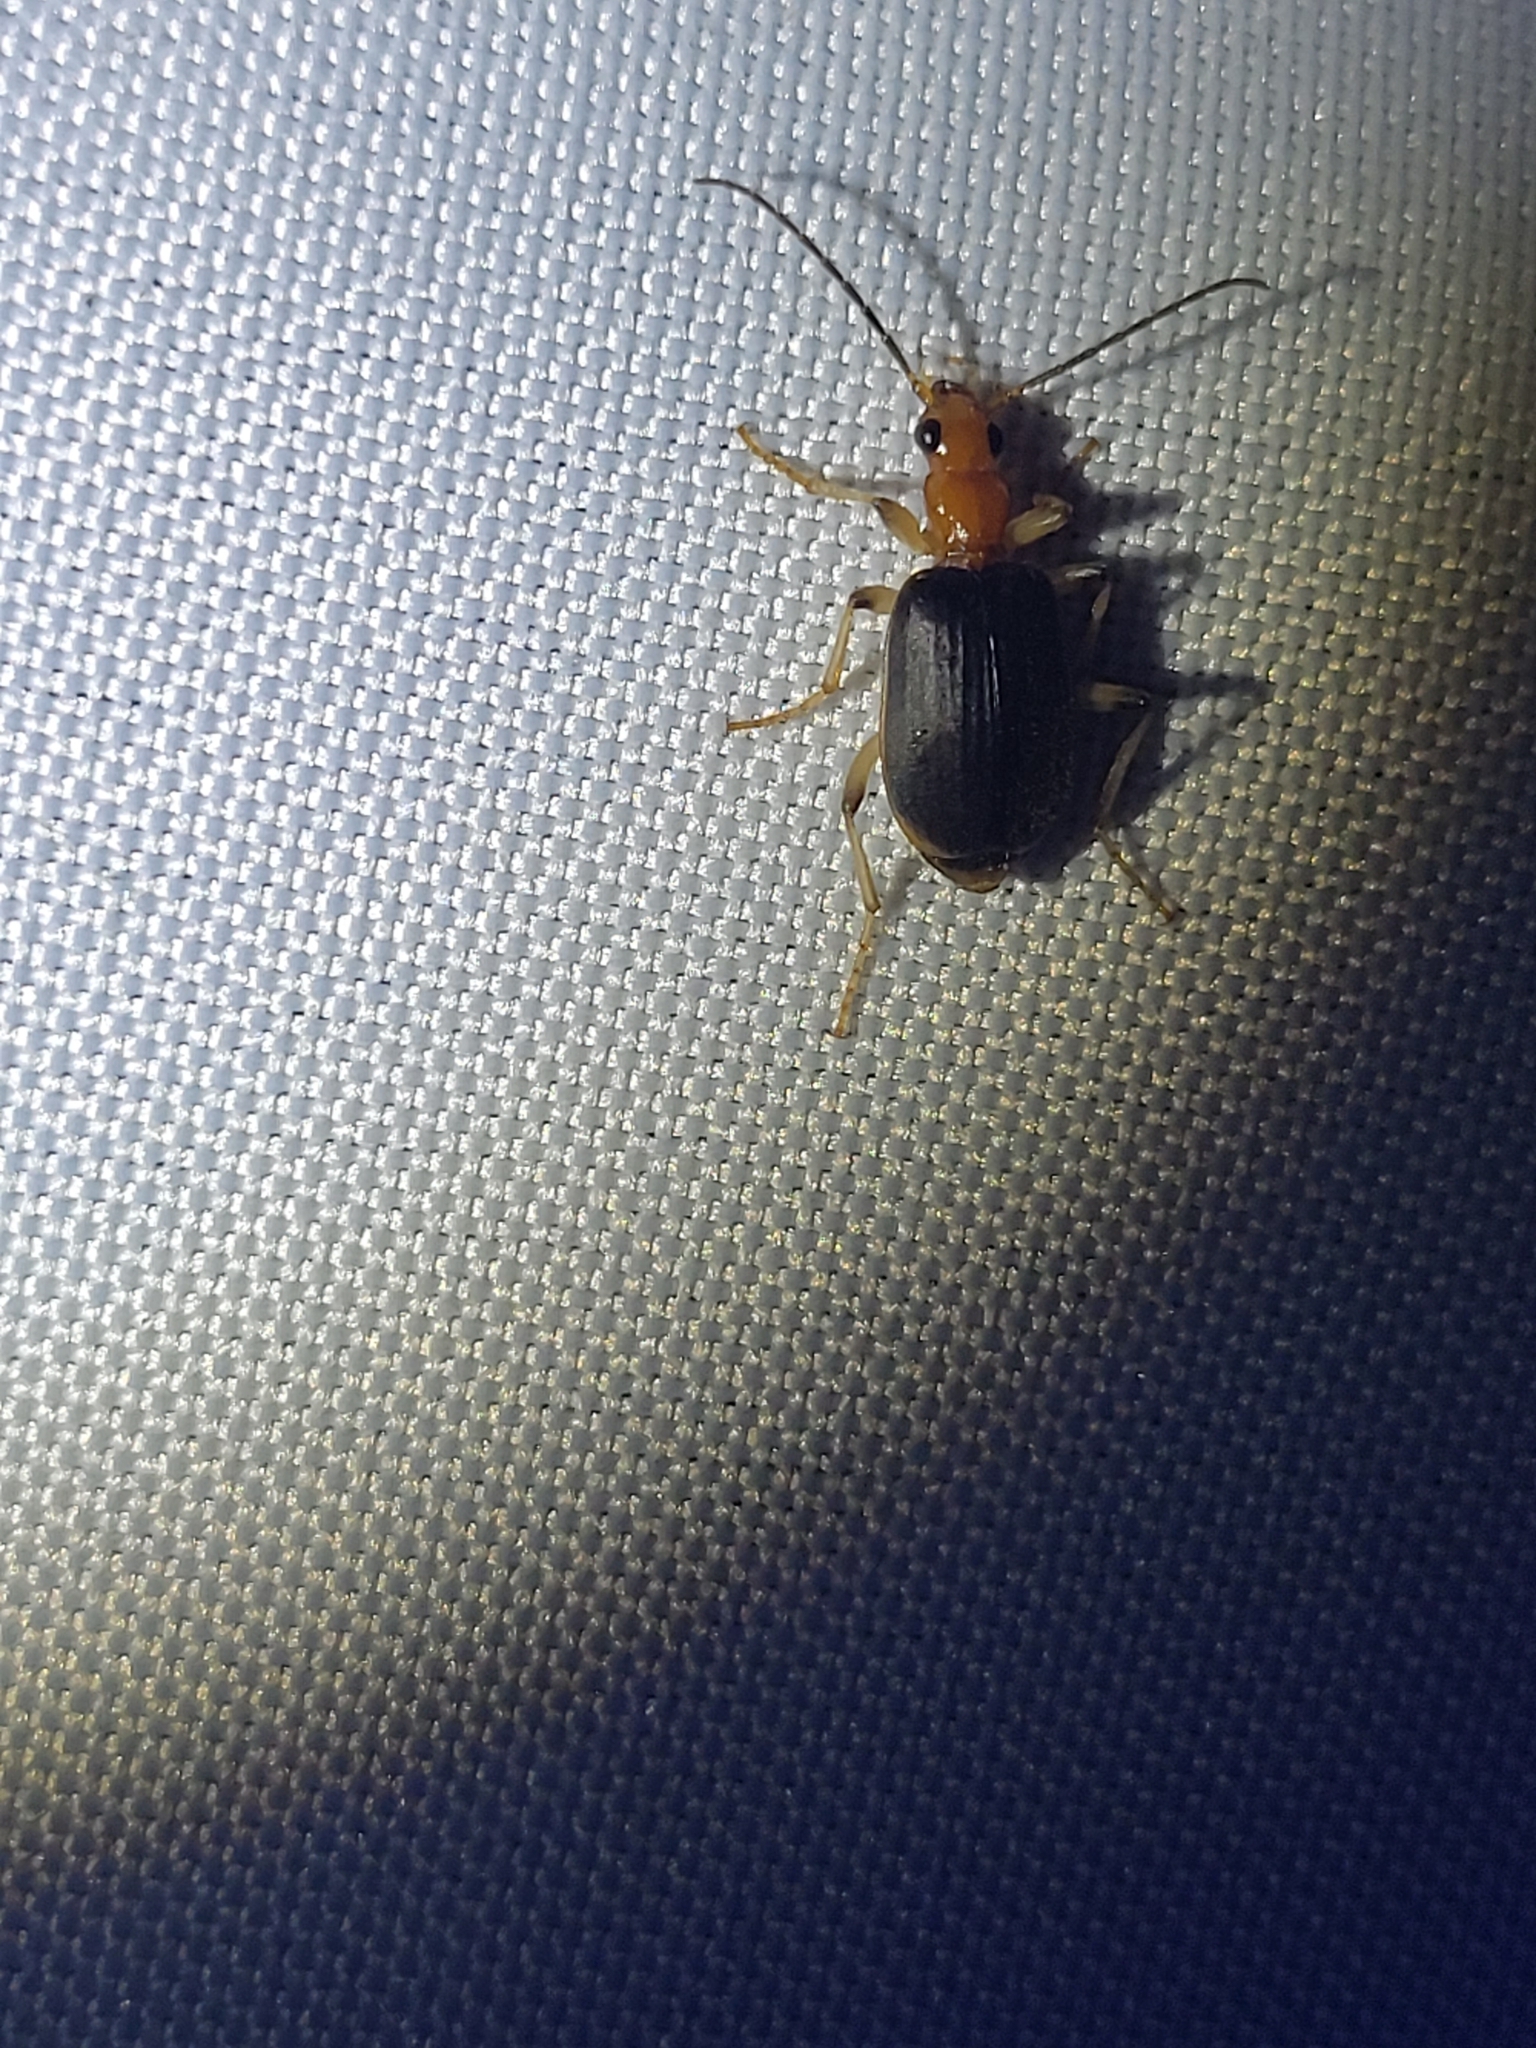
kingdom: Animalia
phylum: Arthropoda
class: Insecta
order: Coleoptera
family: Carabidae
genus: Brachinus
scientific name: Brachinus adustipennis
